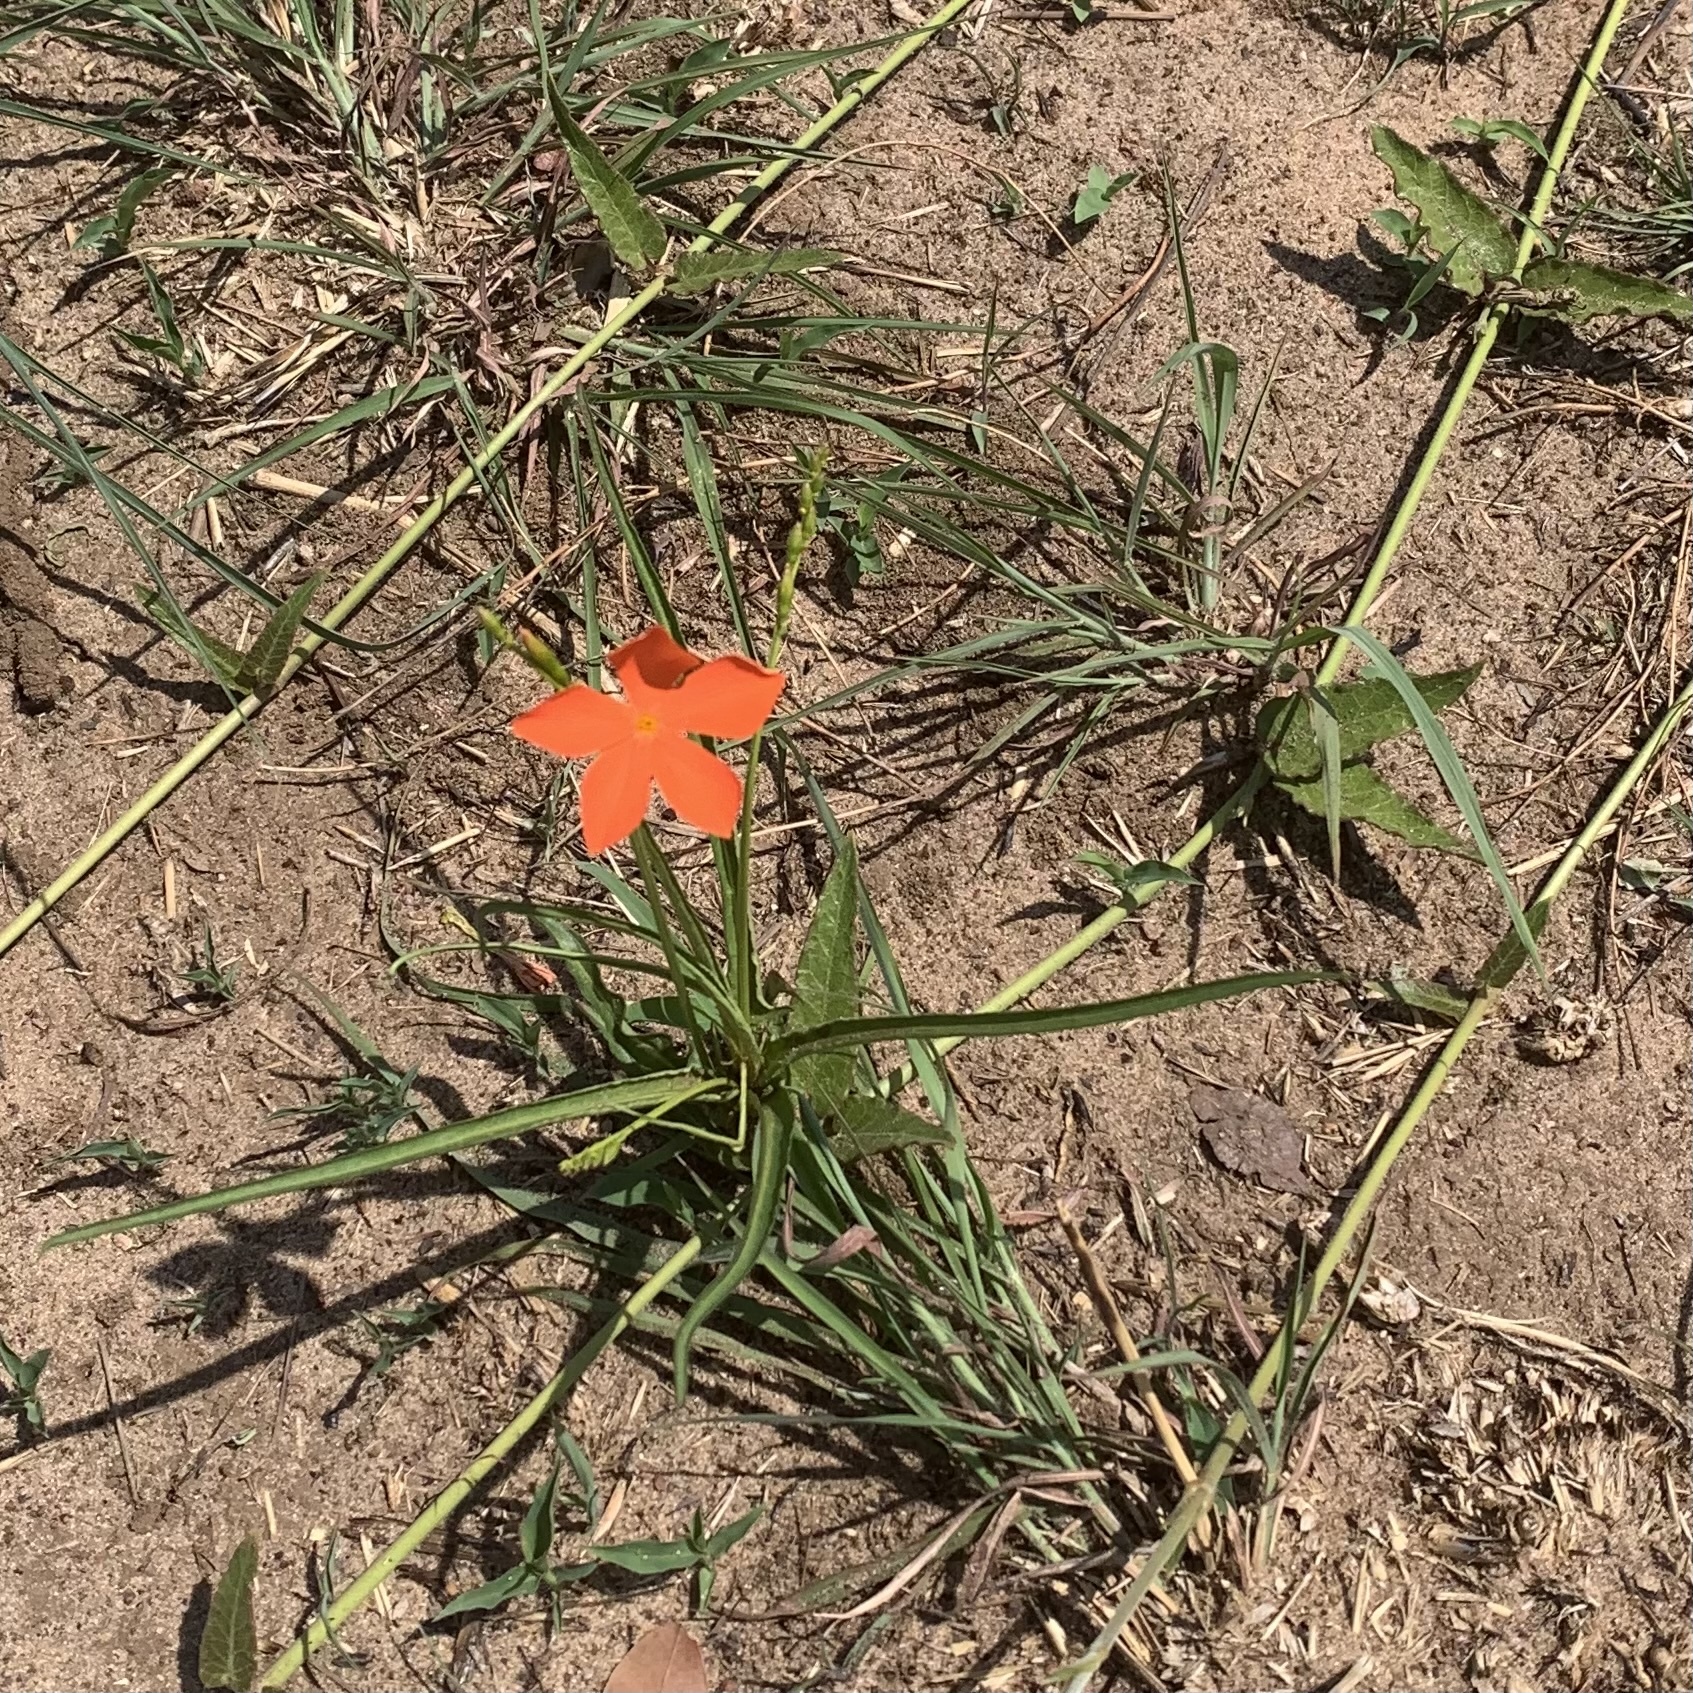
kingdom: Plantae
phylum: Tracheophyta
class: Magnoliopsida
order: Malpighiales
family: Turneraceae
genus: Tricliceras
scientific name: Tricliceras longepedunculatum
